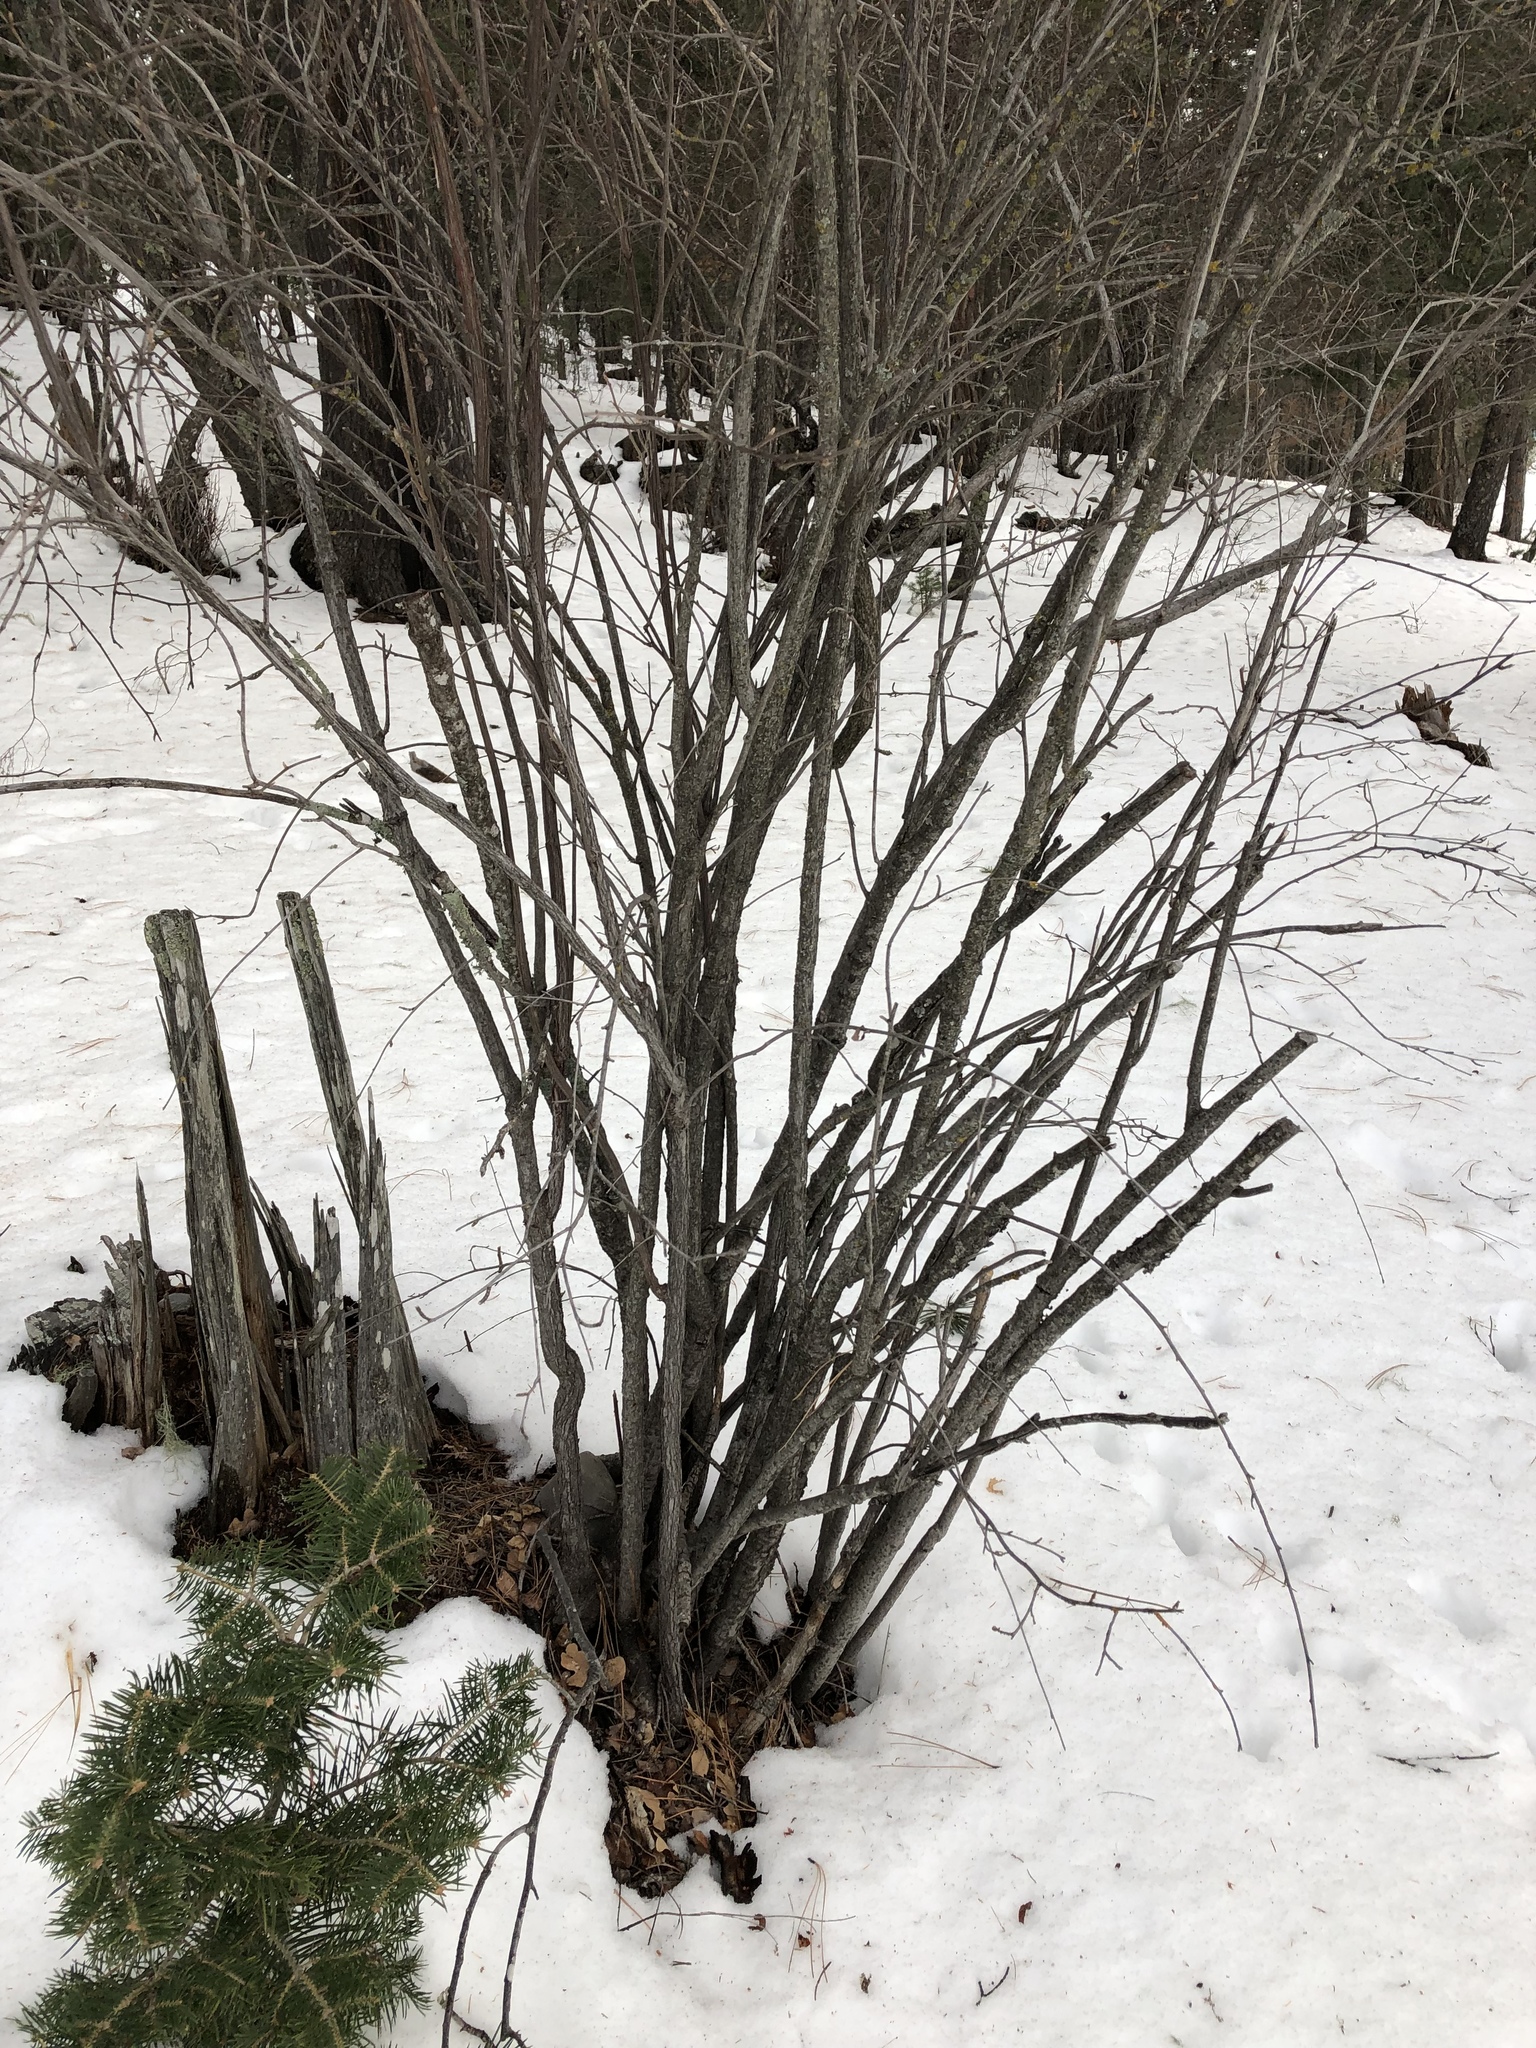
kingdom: Plantae
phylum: Tracheophyta
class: Magnoliopsida
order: Rosales
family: Rosaceae
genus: Holodiscus
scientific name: Holodiscus discolor
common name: Oceanspray
